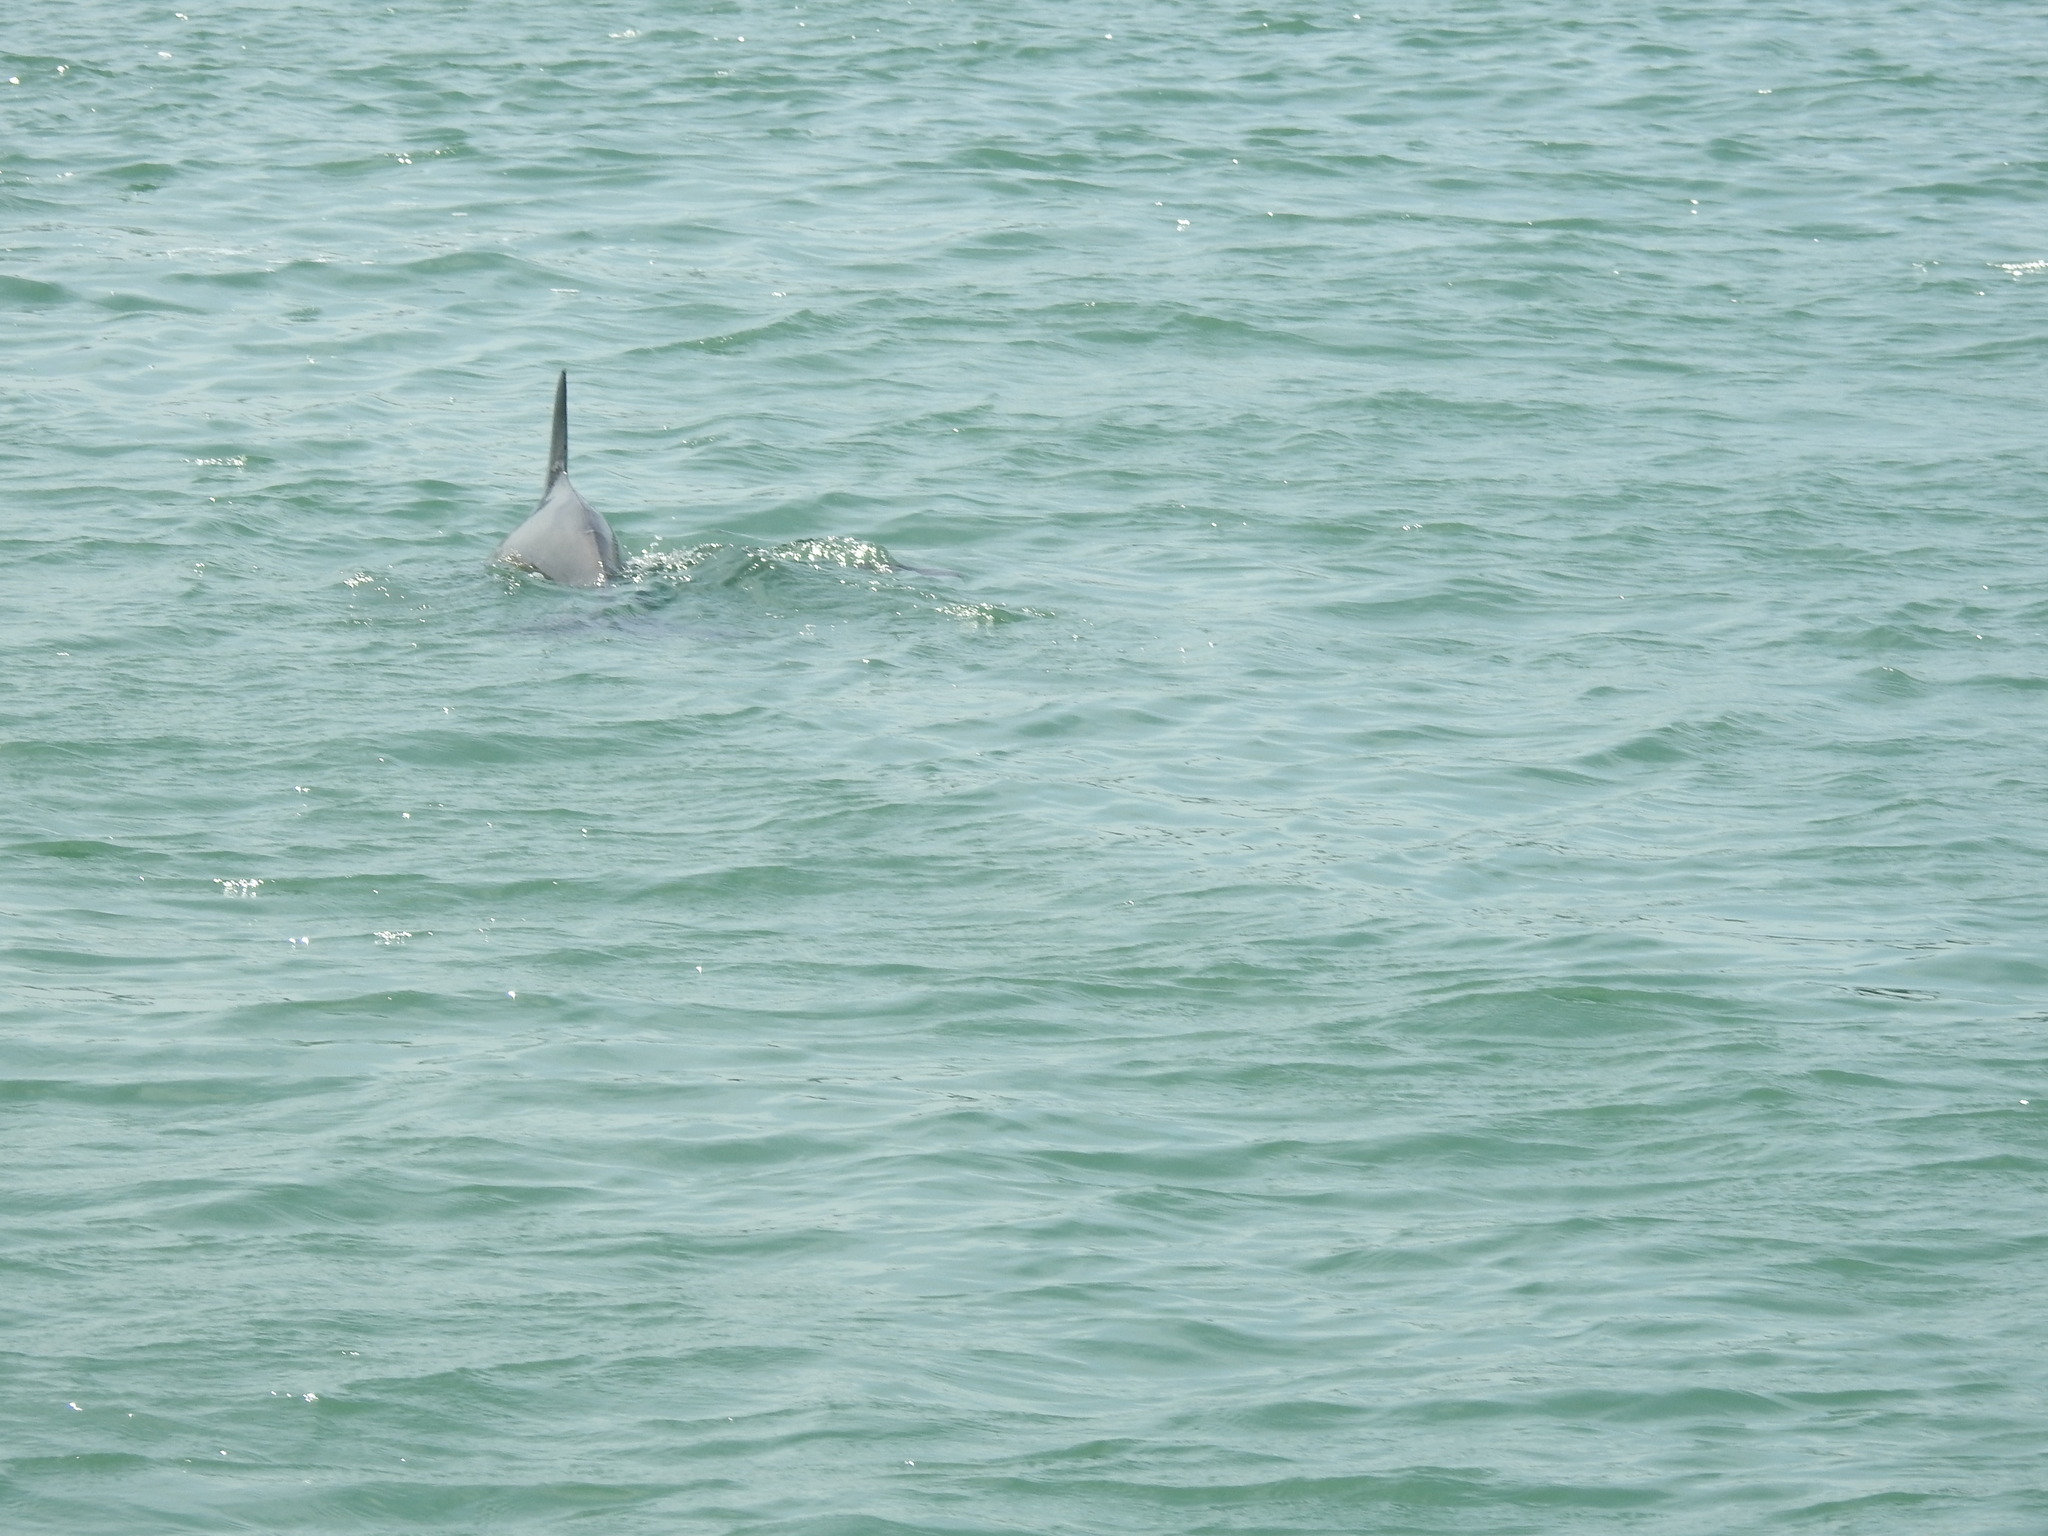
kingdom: Animalia
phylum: Chordata
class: Mammalia
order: Cetacea
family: Delphinidae
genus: Tursiops
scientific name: Tursiops truncatus
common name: Bottlenose dolphin
